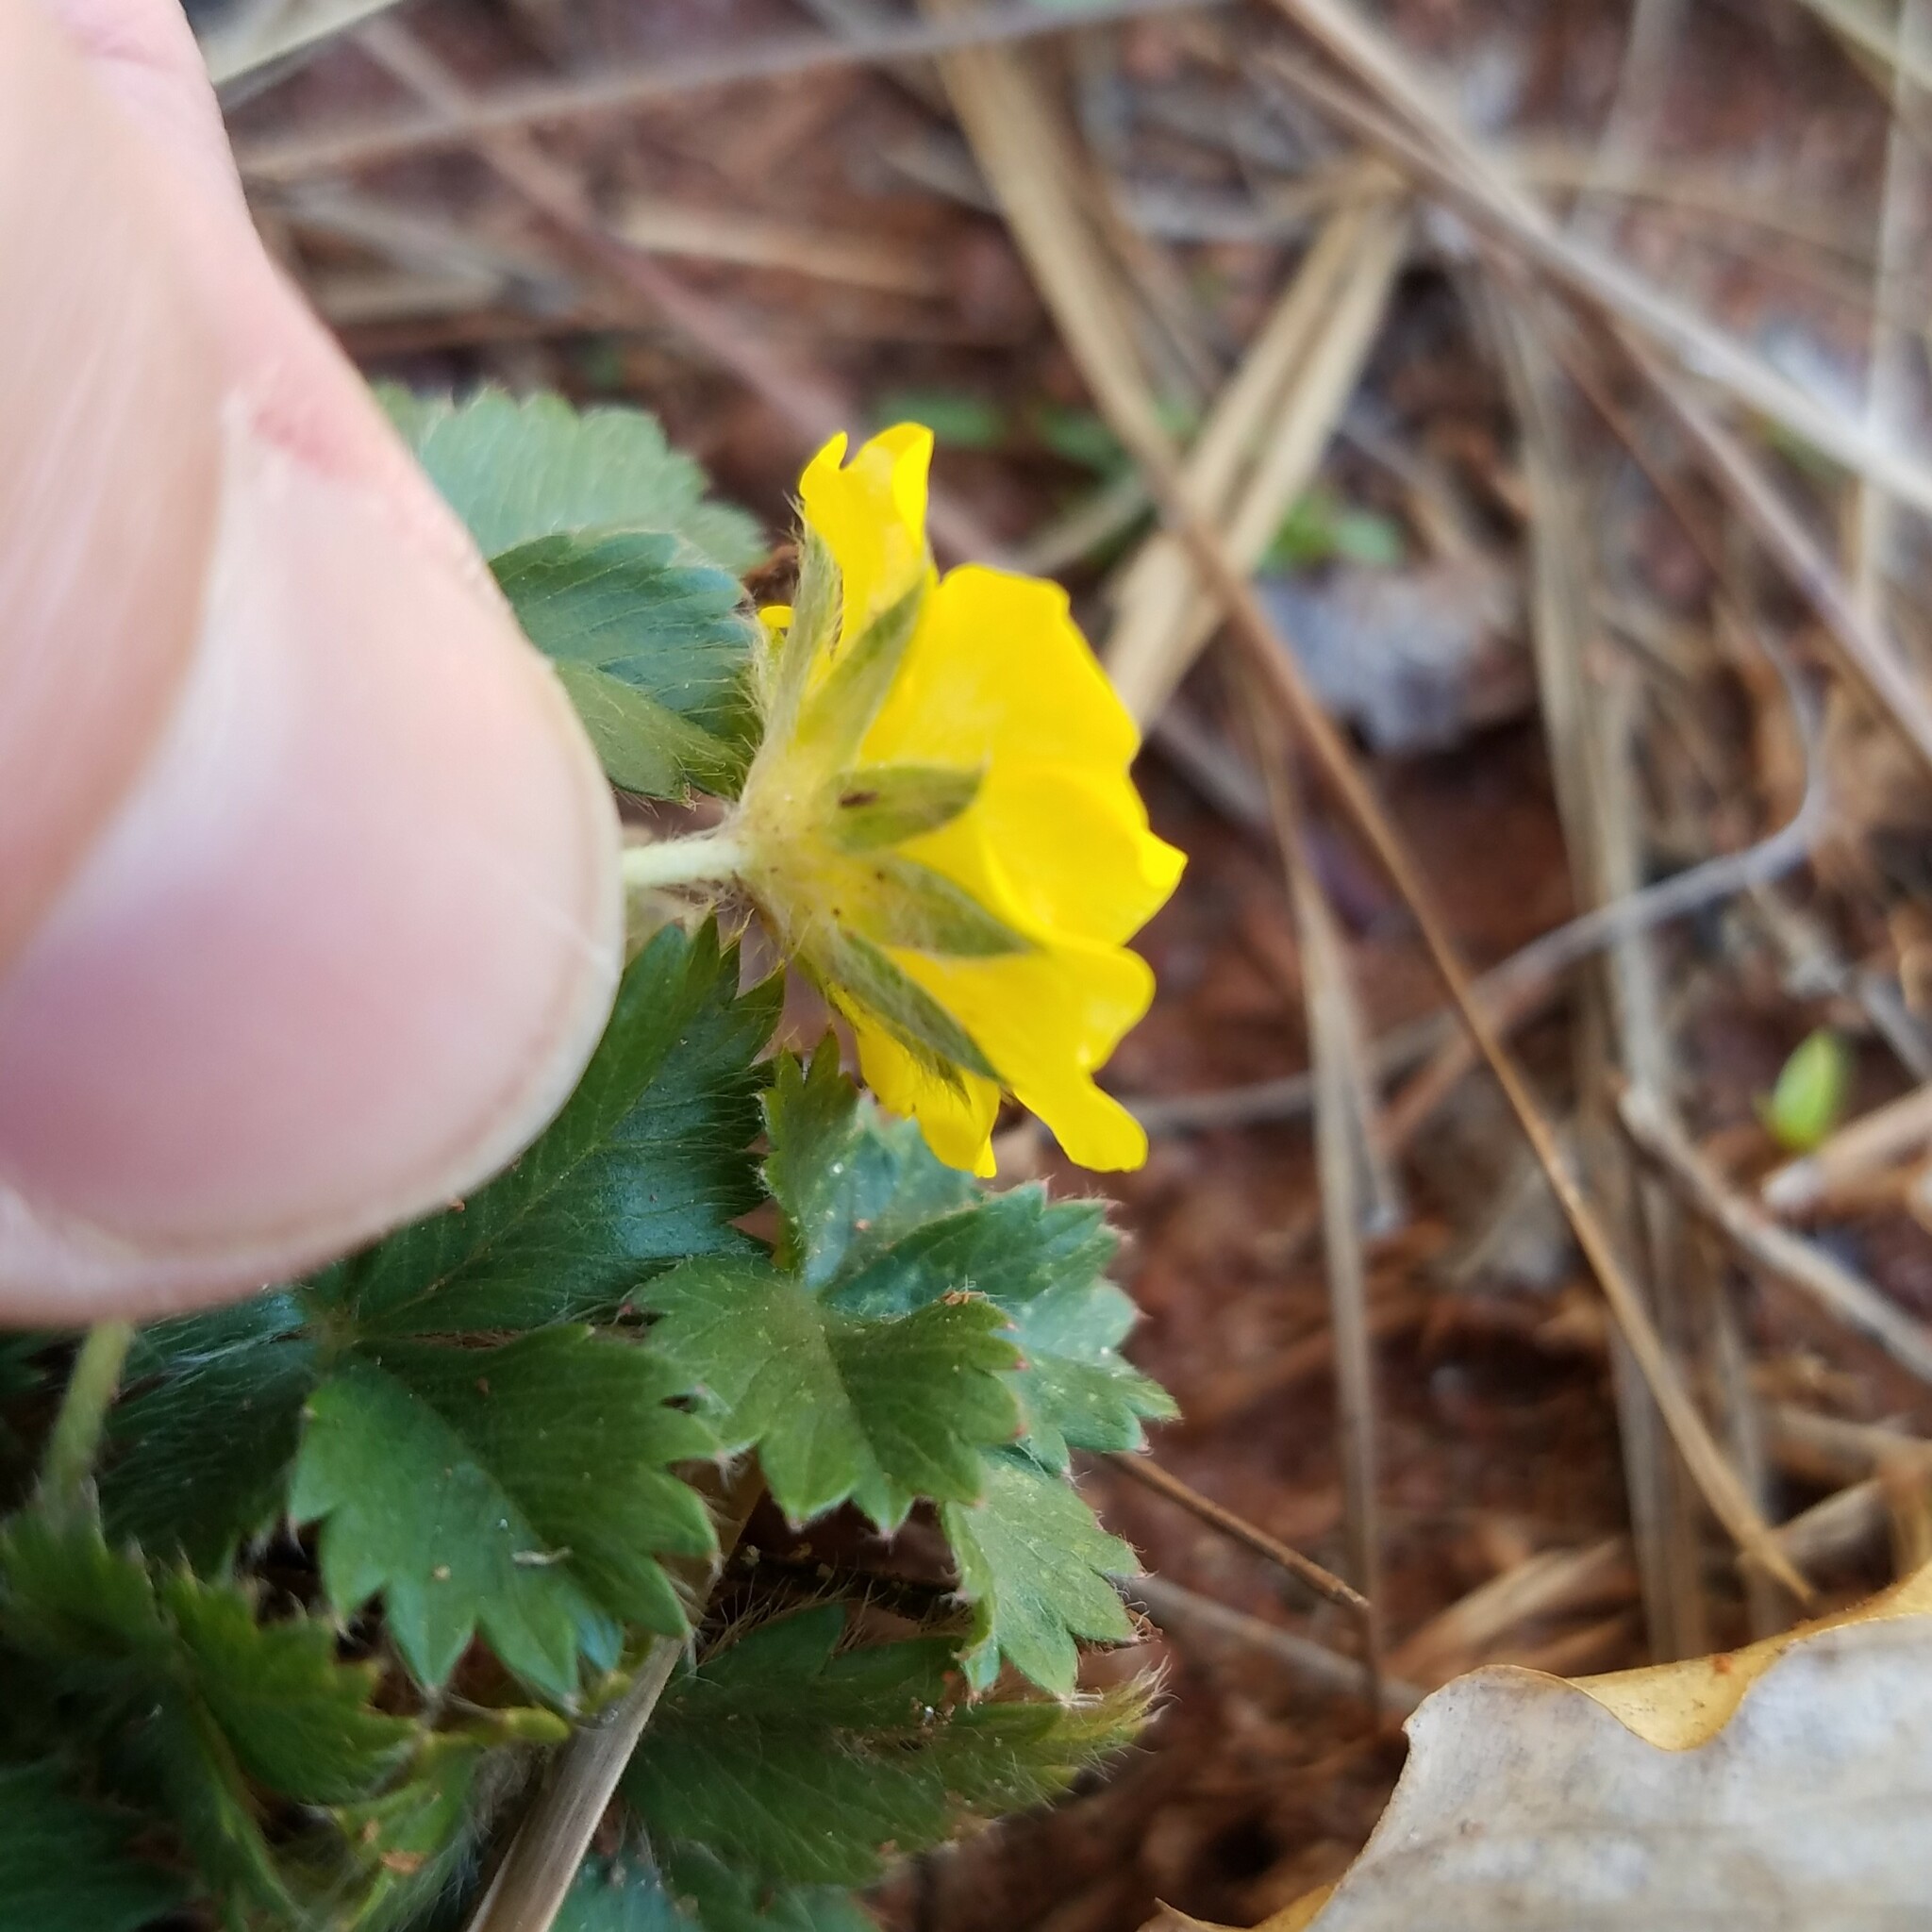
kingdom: Plantae
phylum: Tracheophyta
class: Magnoliopsida
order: Rosales
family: Rosaceae
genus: Potentilla
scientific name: Potentilla canadensis
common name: Canada cinquefoil
